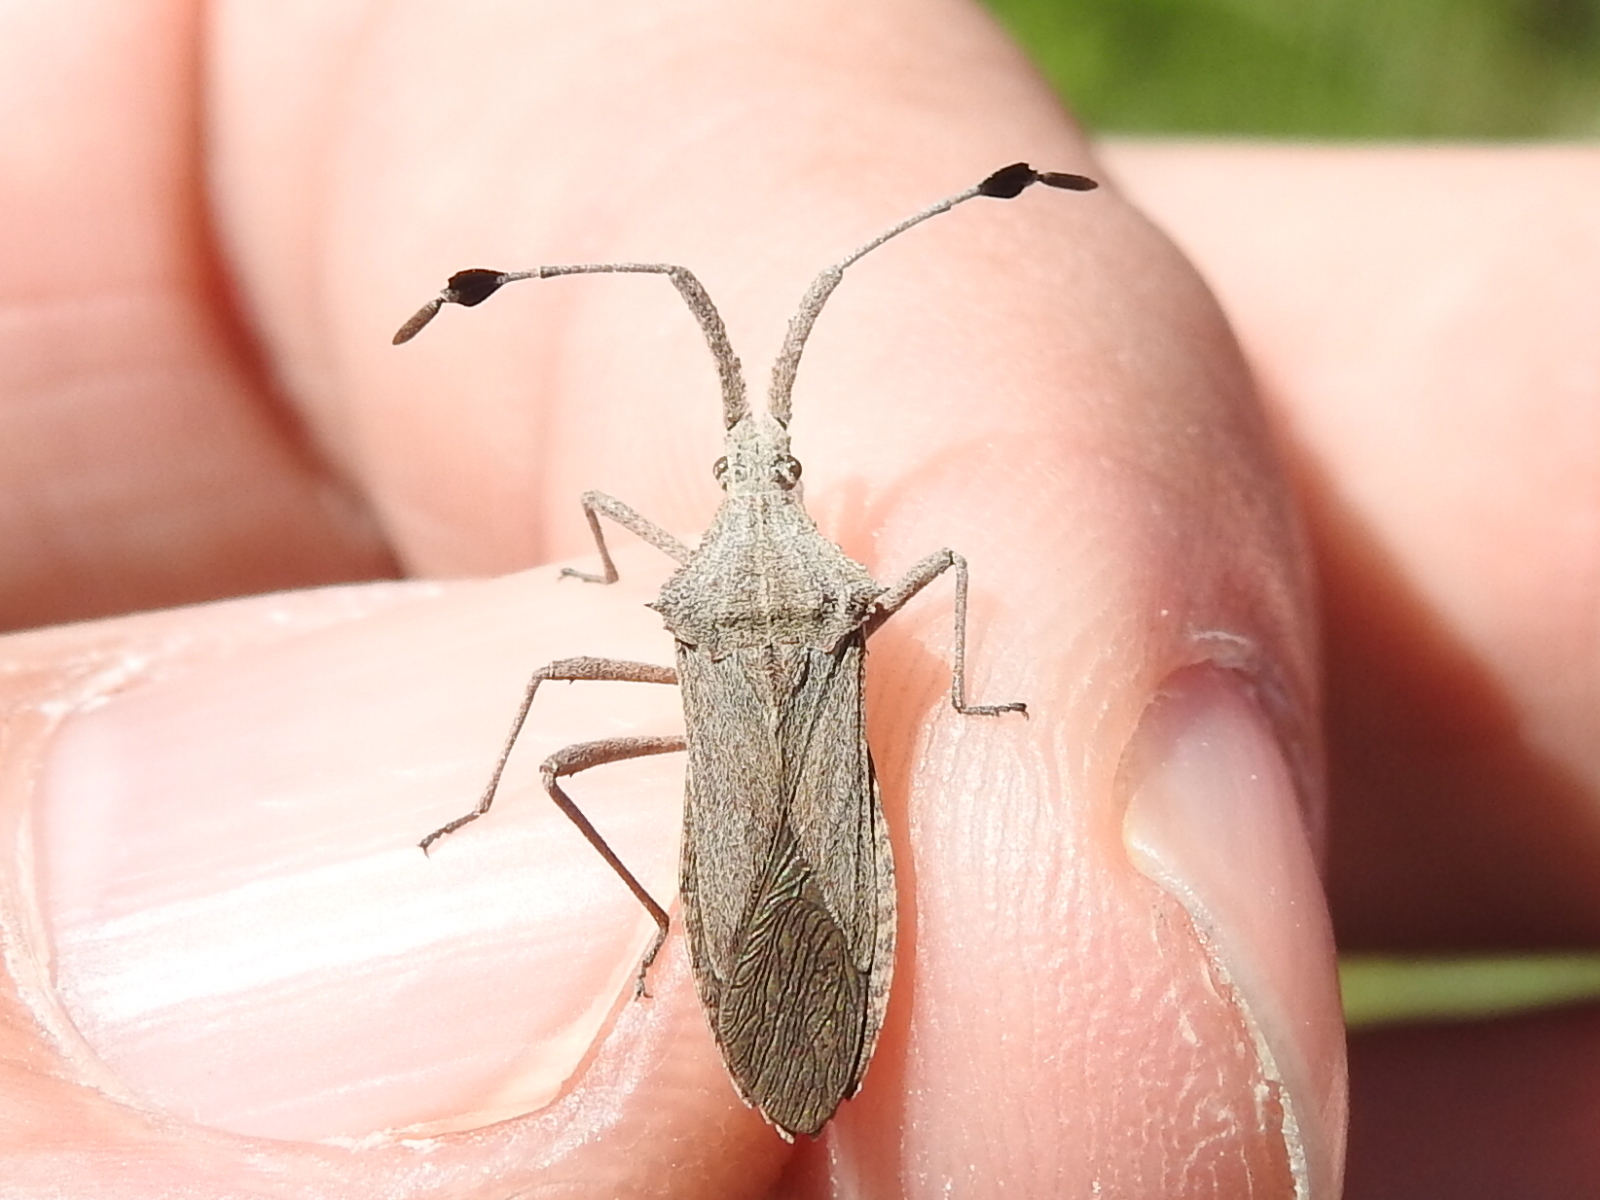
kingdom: Animalia
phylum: Arthropoda
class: Insecta
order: Hemiptera
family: Coreidae
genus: Chariesterus
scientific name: Chariesterus antennator
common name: Flat horned coreid
